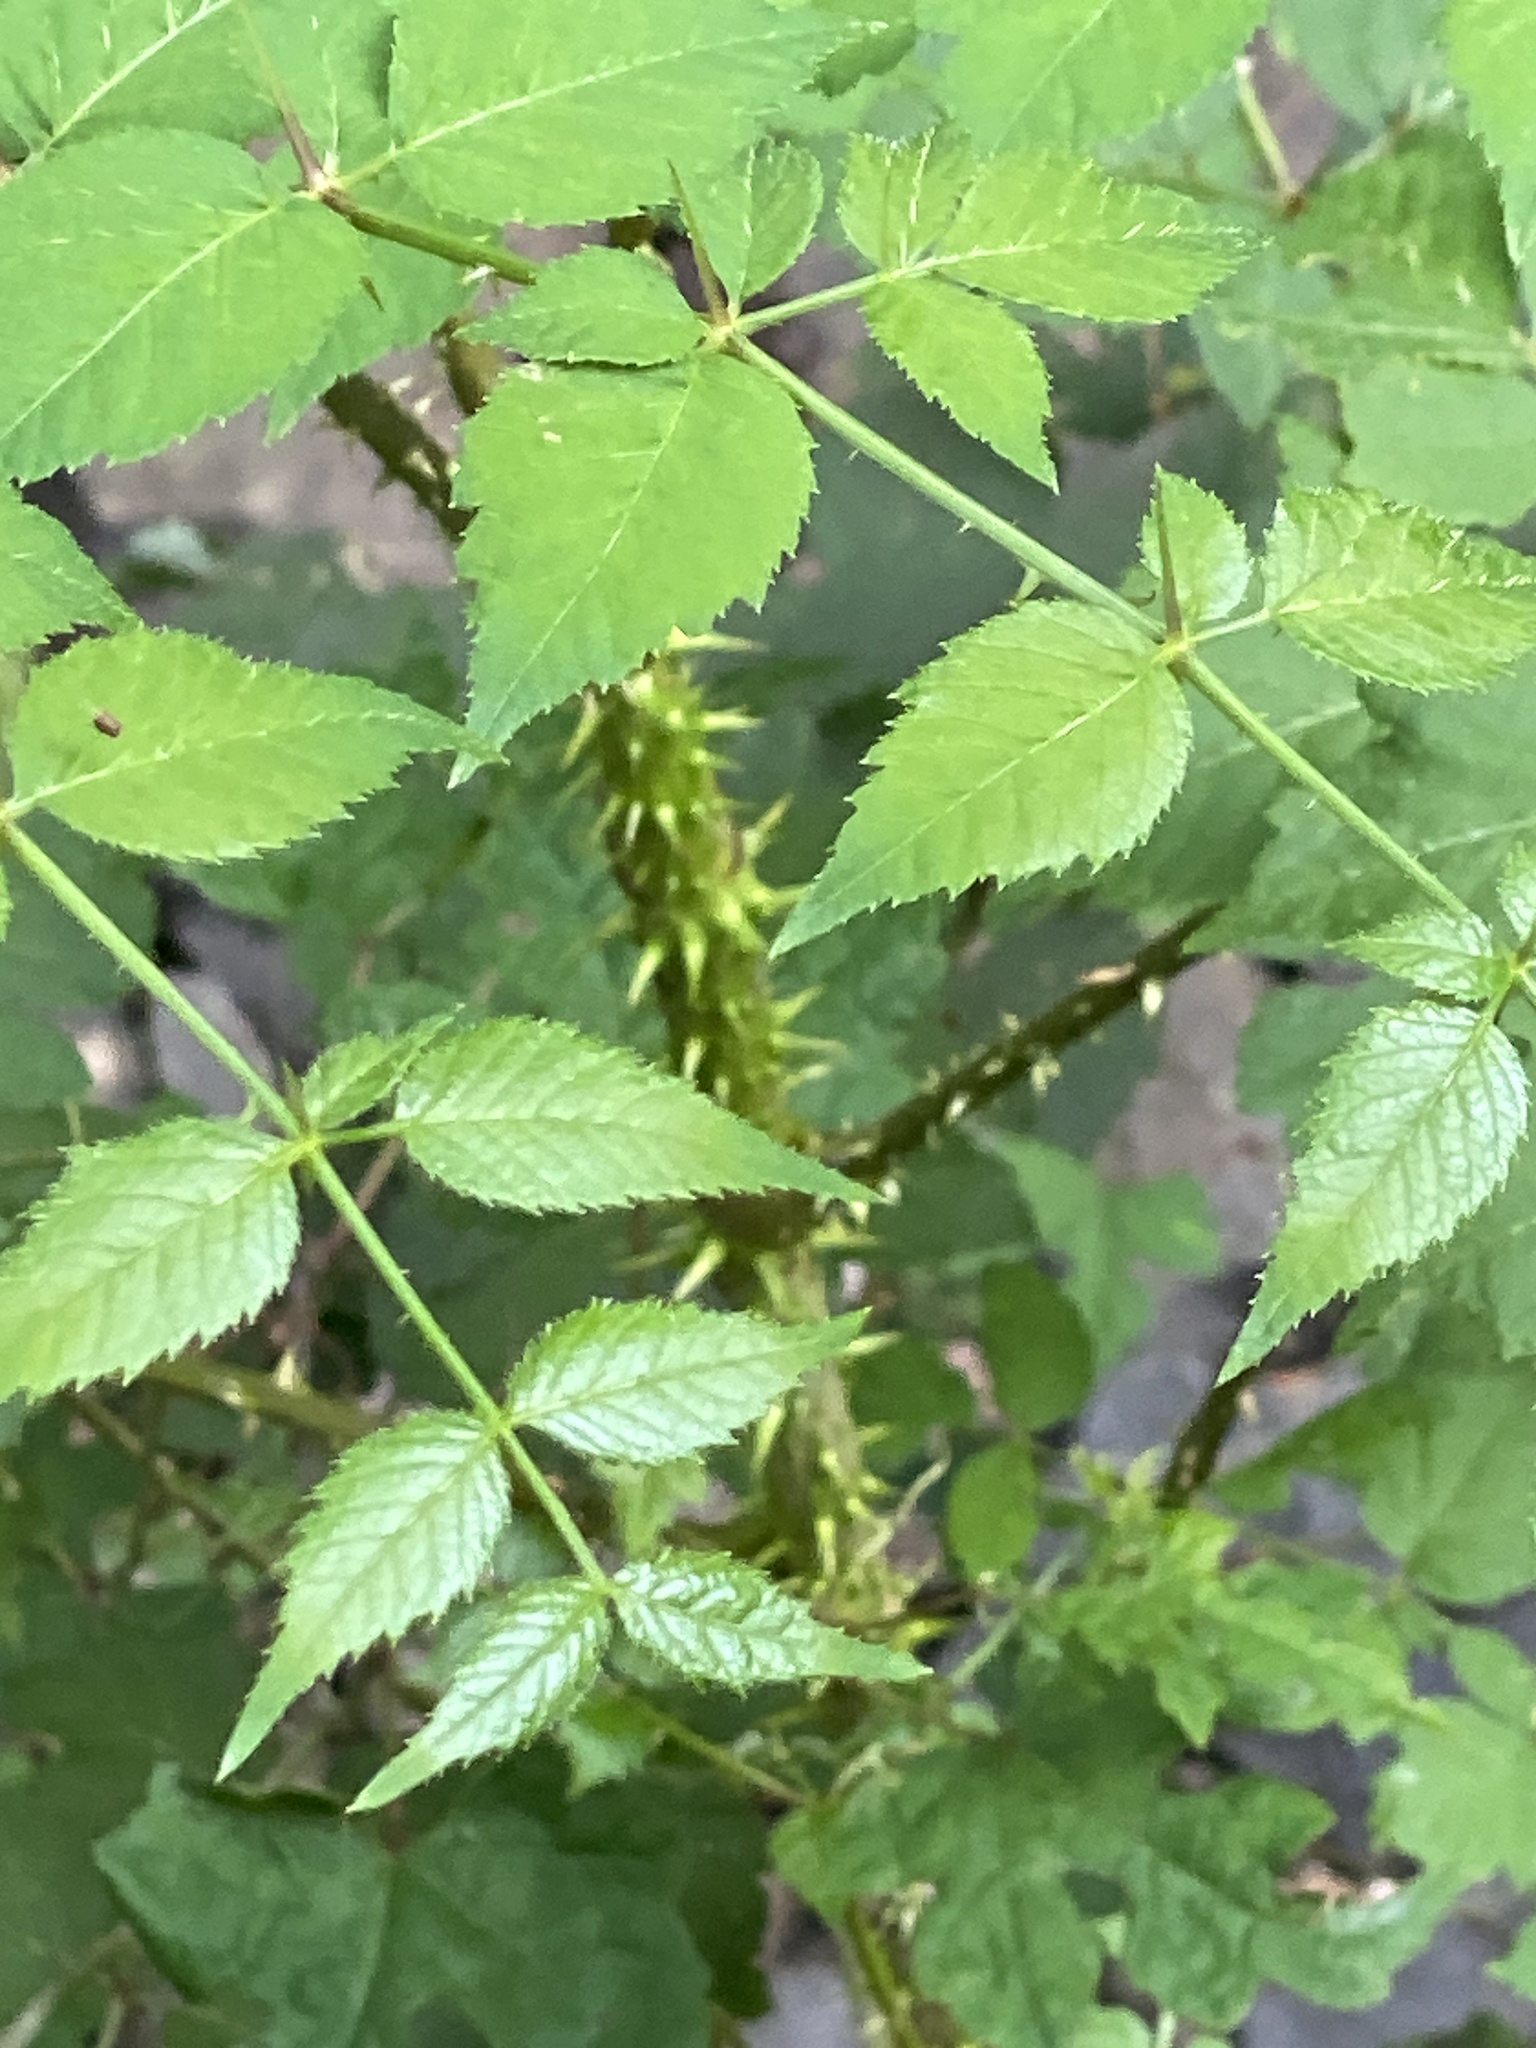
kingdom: Plantae
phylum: Tracheophyta
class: Magnoliopsida
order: Apiales
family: Araliaceae
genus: Aralia
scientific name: Aralia elata
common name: Japanese angelica-tree
